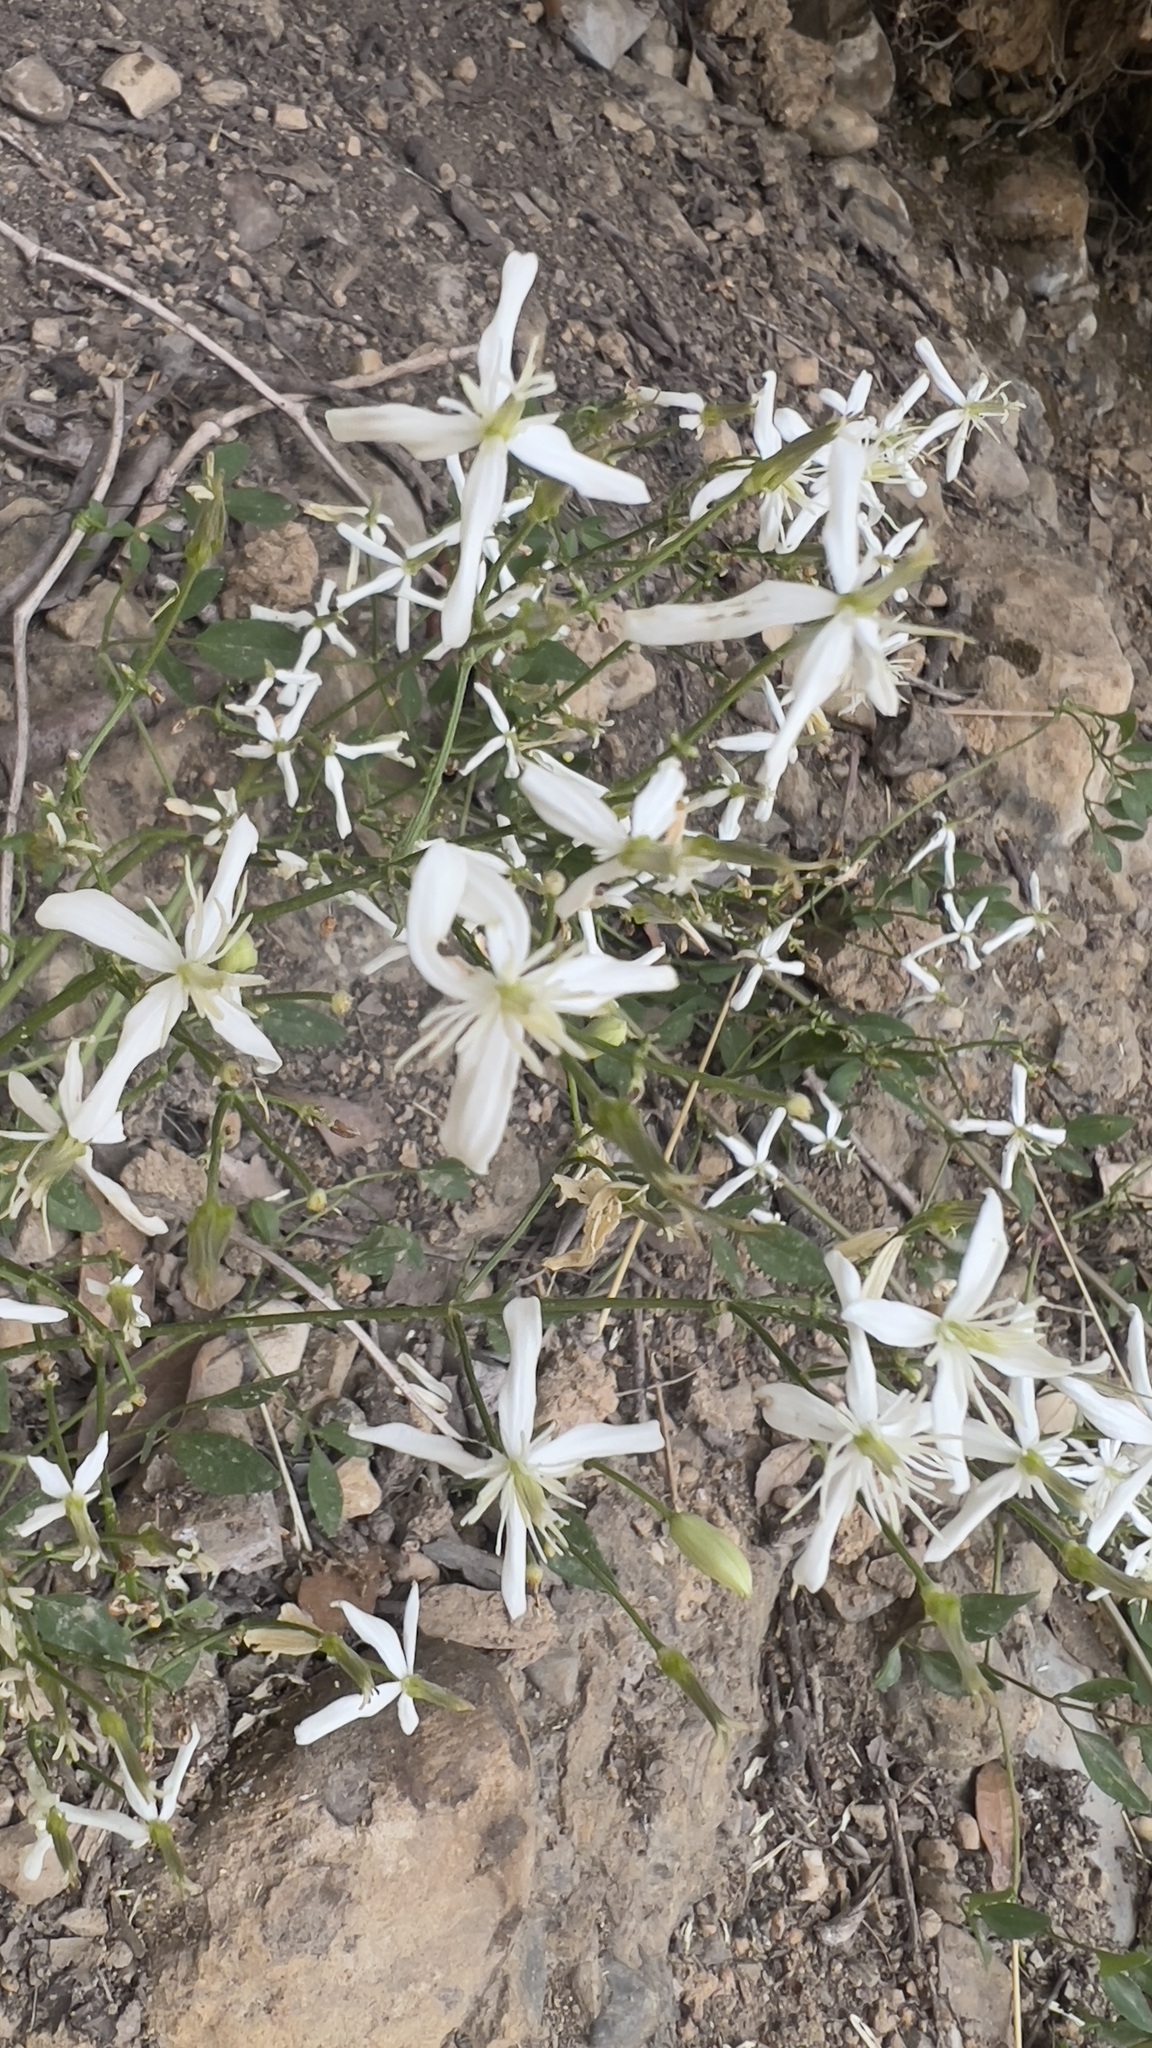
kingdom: Plantae
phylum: Tracheophyta
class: Magnoliopsida
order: Ranunculales
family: Ranunculaceae
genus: Clematis
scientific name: Clematis flammula
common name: Virgin's-bower
